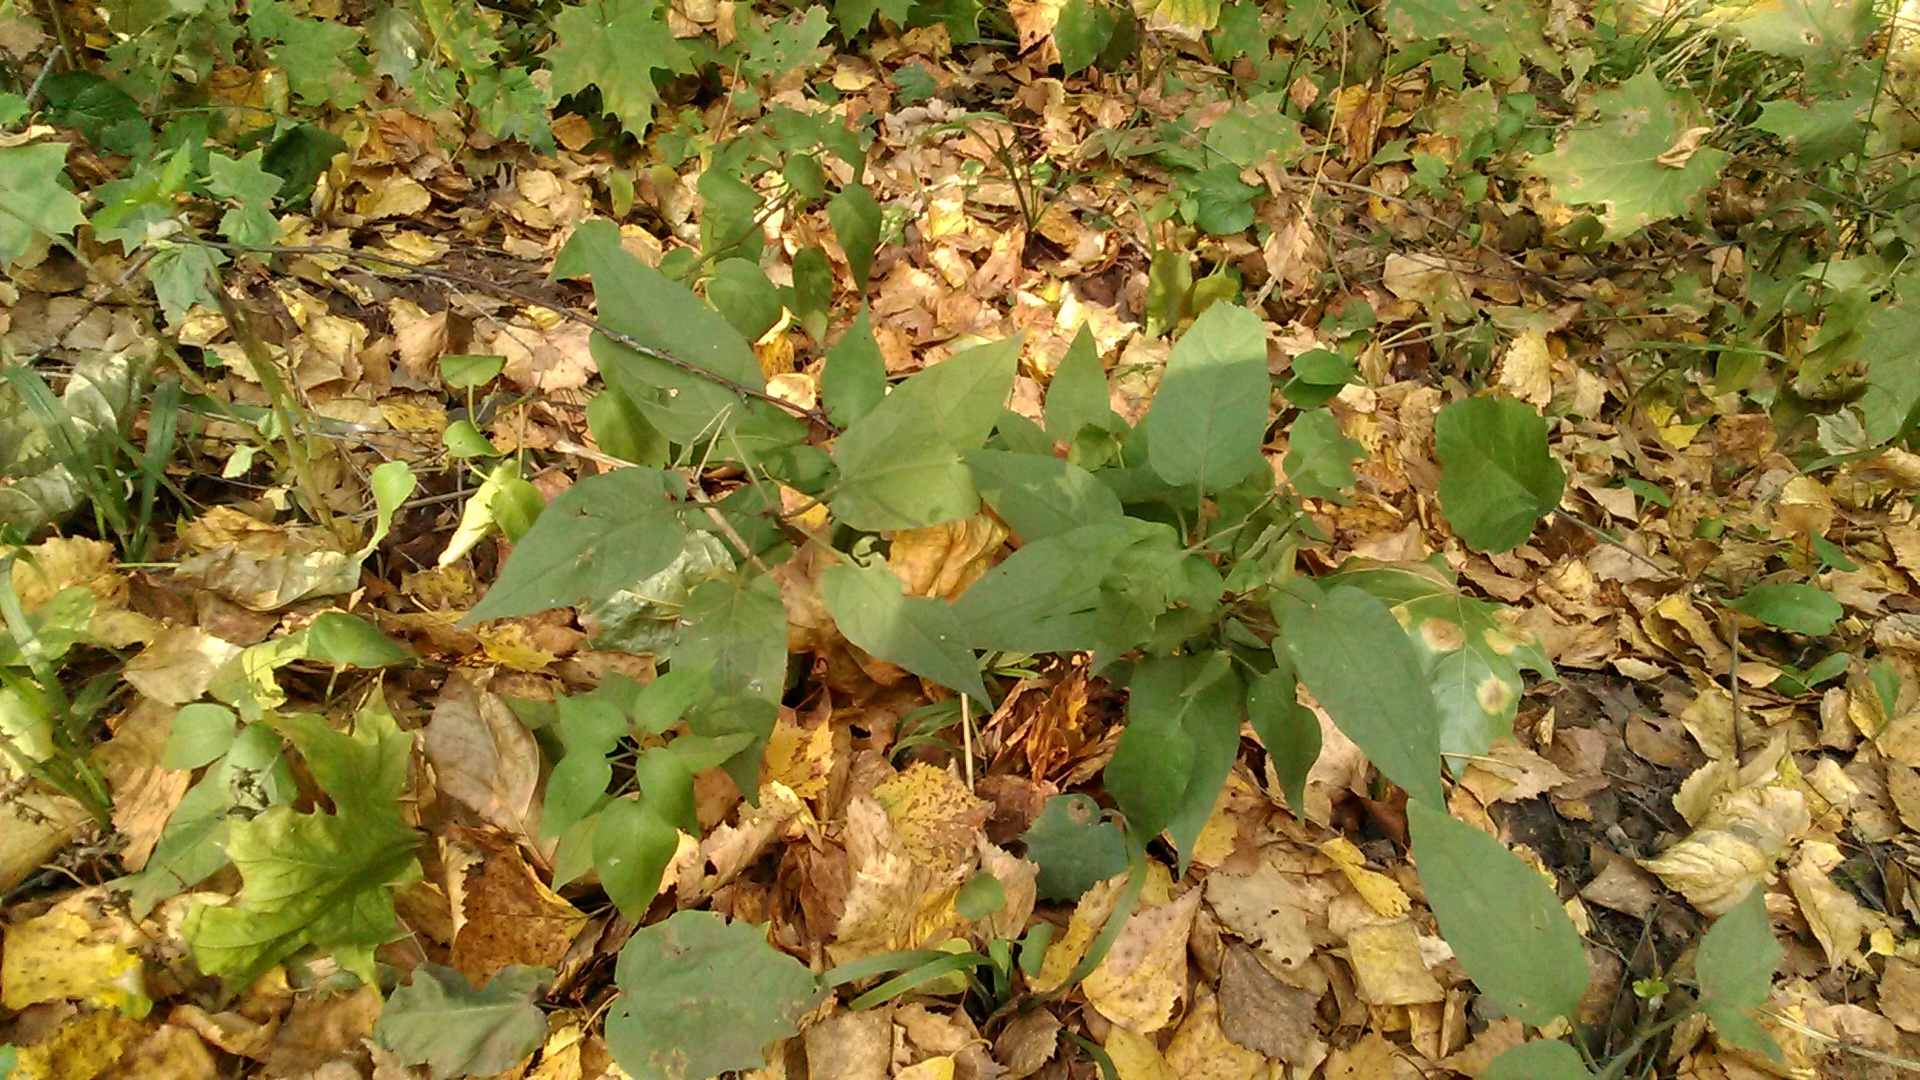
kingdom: Plantae
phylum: Tracheophyta
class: Magnoliopsida
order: Myrtales
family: Onagraceae
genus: Circaea
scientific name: Circaea lutetiana
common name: Enchanter's-nightshade
